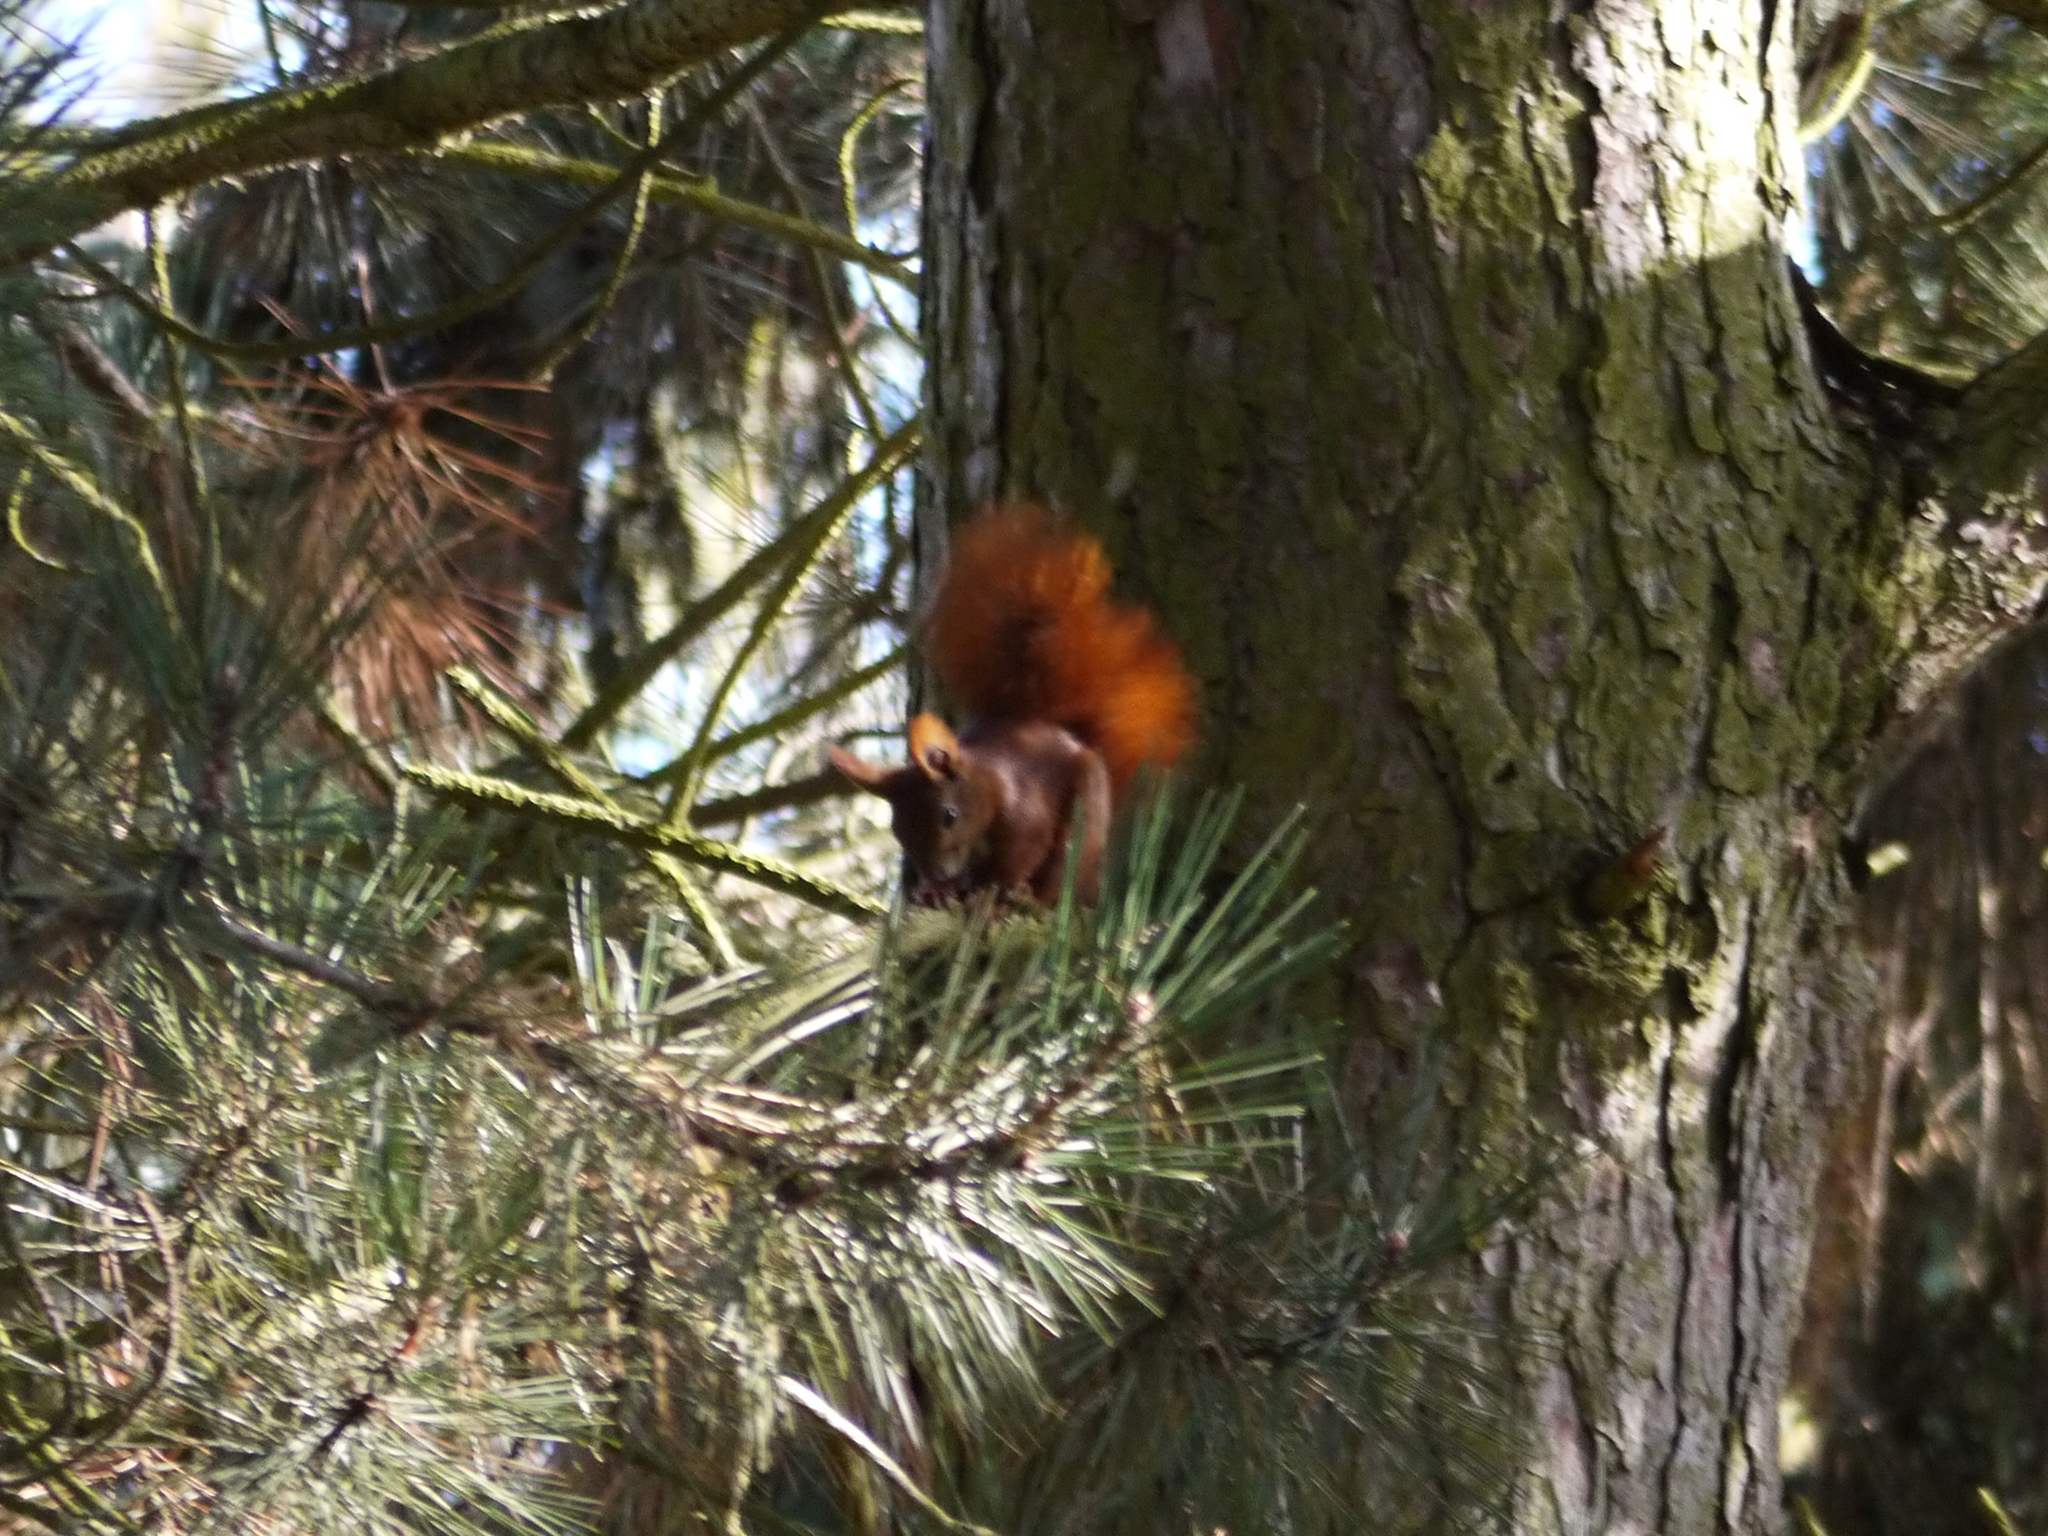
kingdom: Animalia
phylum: Chordata
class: Mammalia
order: Rodentia
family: Sciuridae
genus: Sciurus
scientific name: Sciurus vulgaris
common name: Eurasian red squirrel
